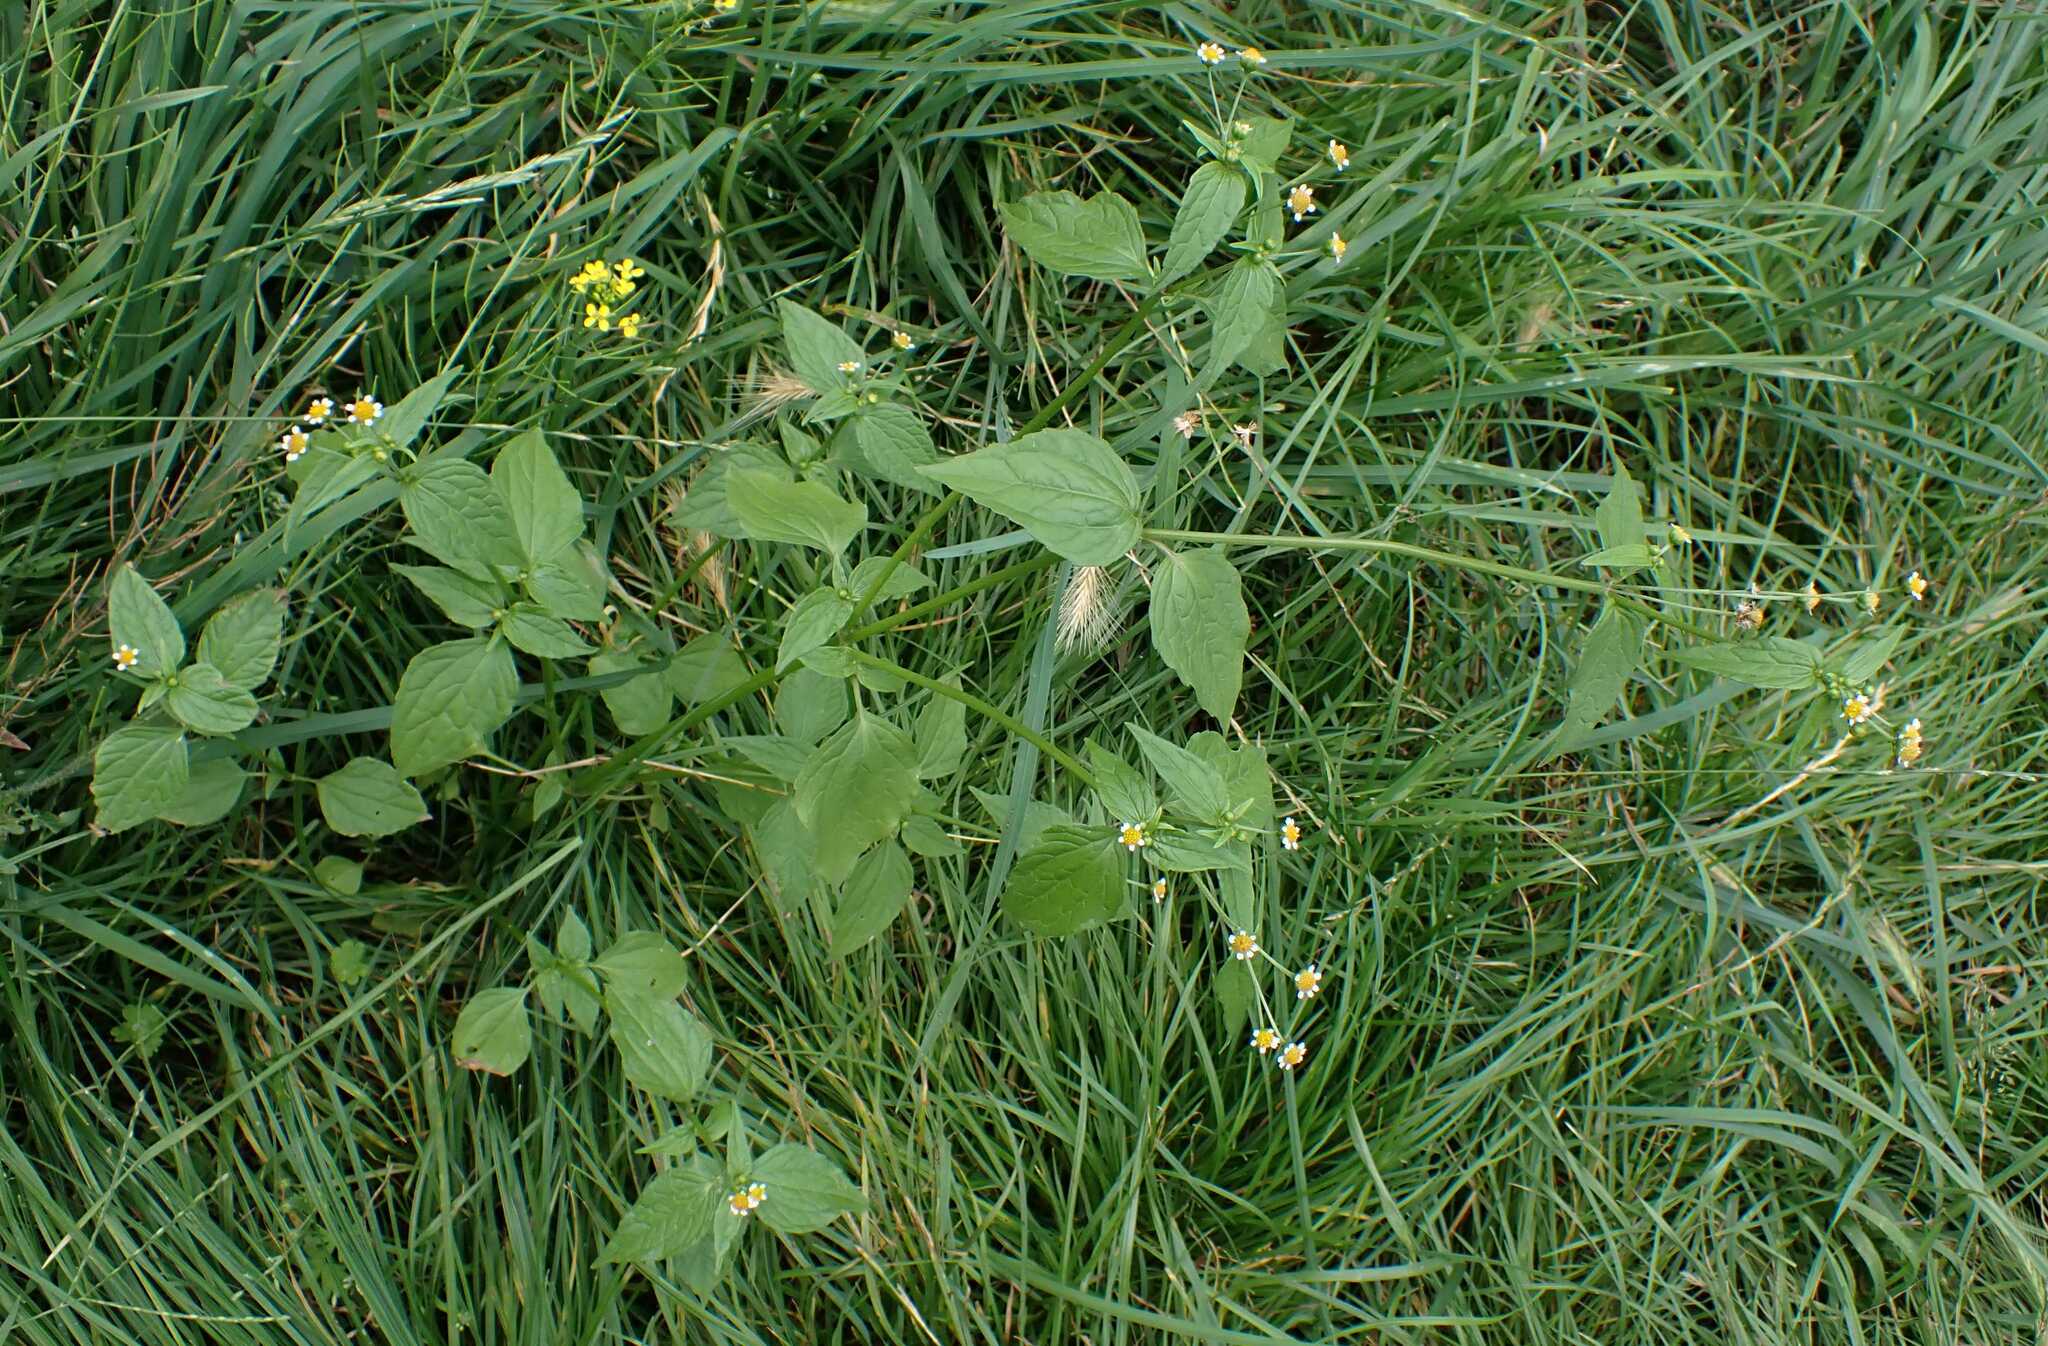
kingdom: Plantae
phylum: Tracheophyta
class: Magnoliopsida
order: Asterales
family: Asteraceae
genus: Galinsoga
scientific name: Galinsoga parviflora
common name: Gallant soldier
